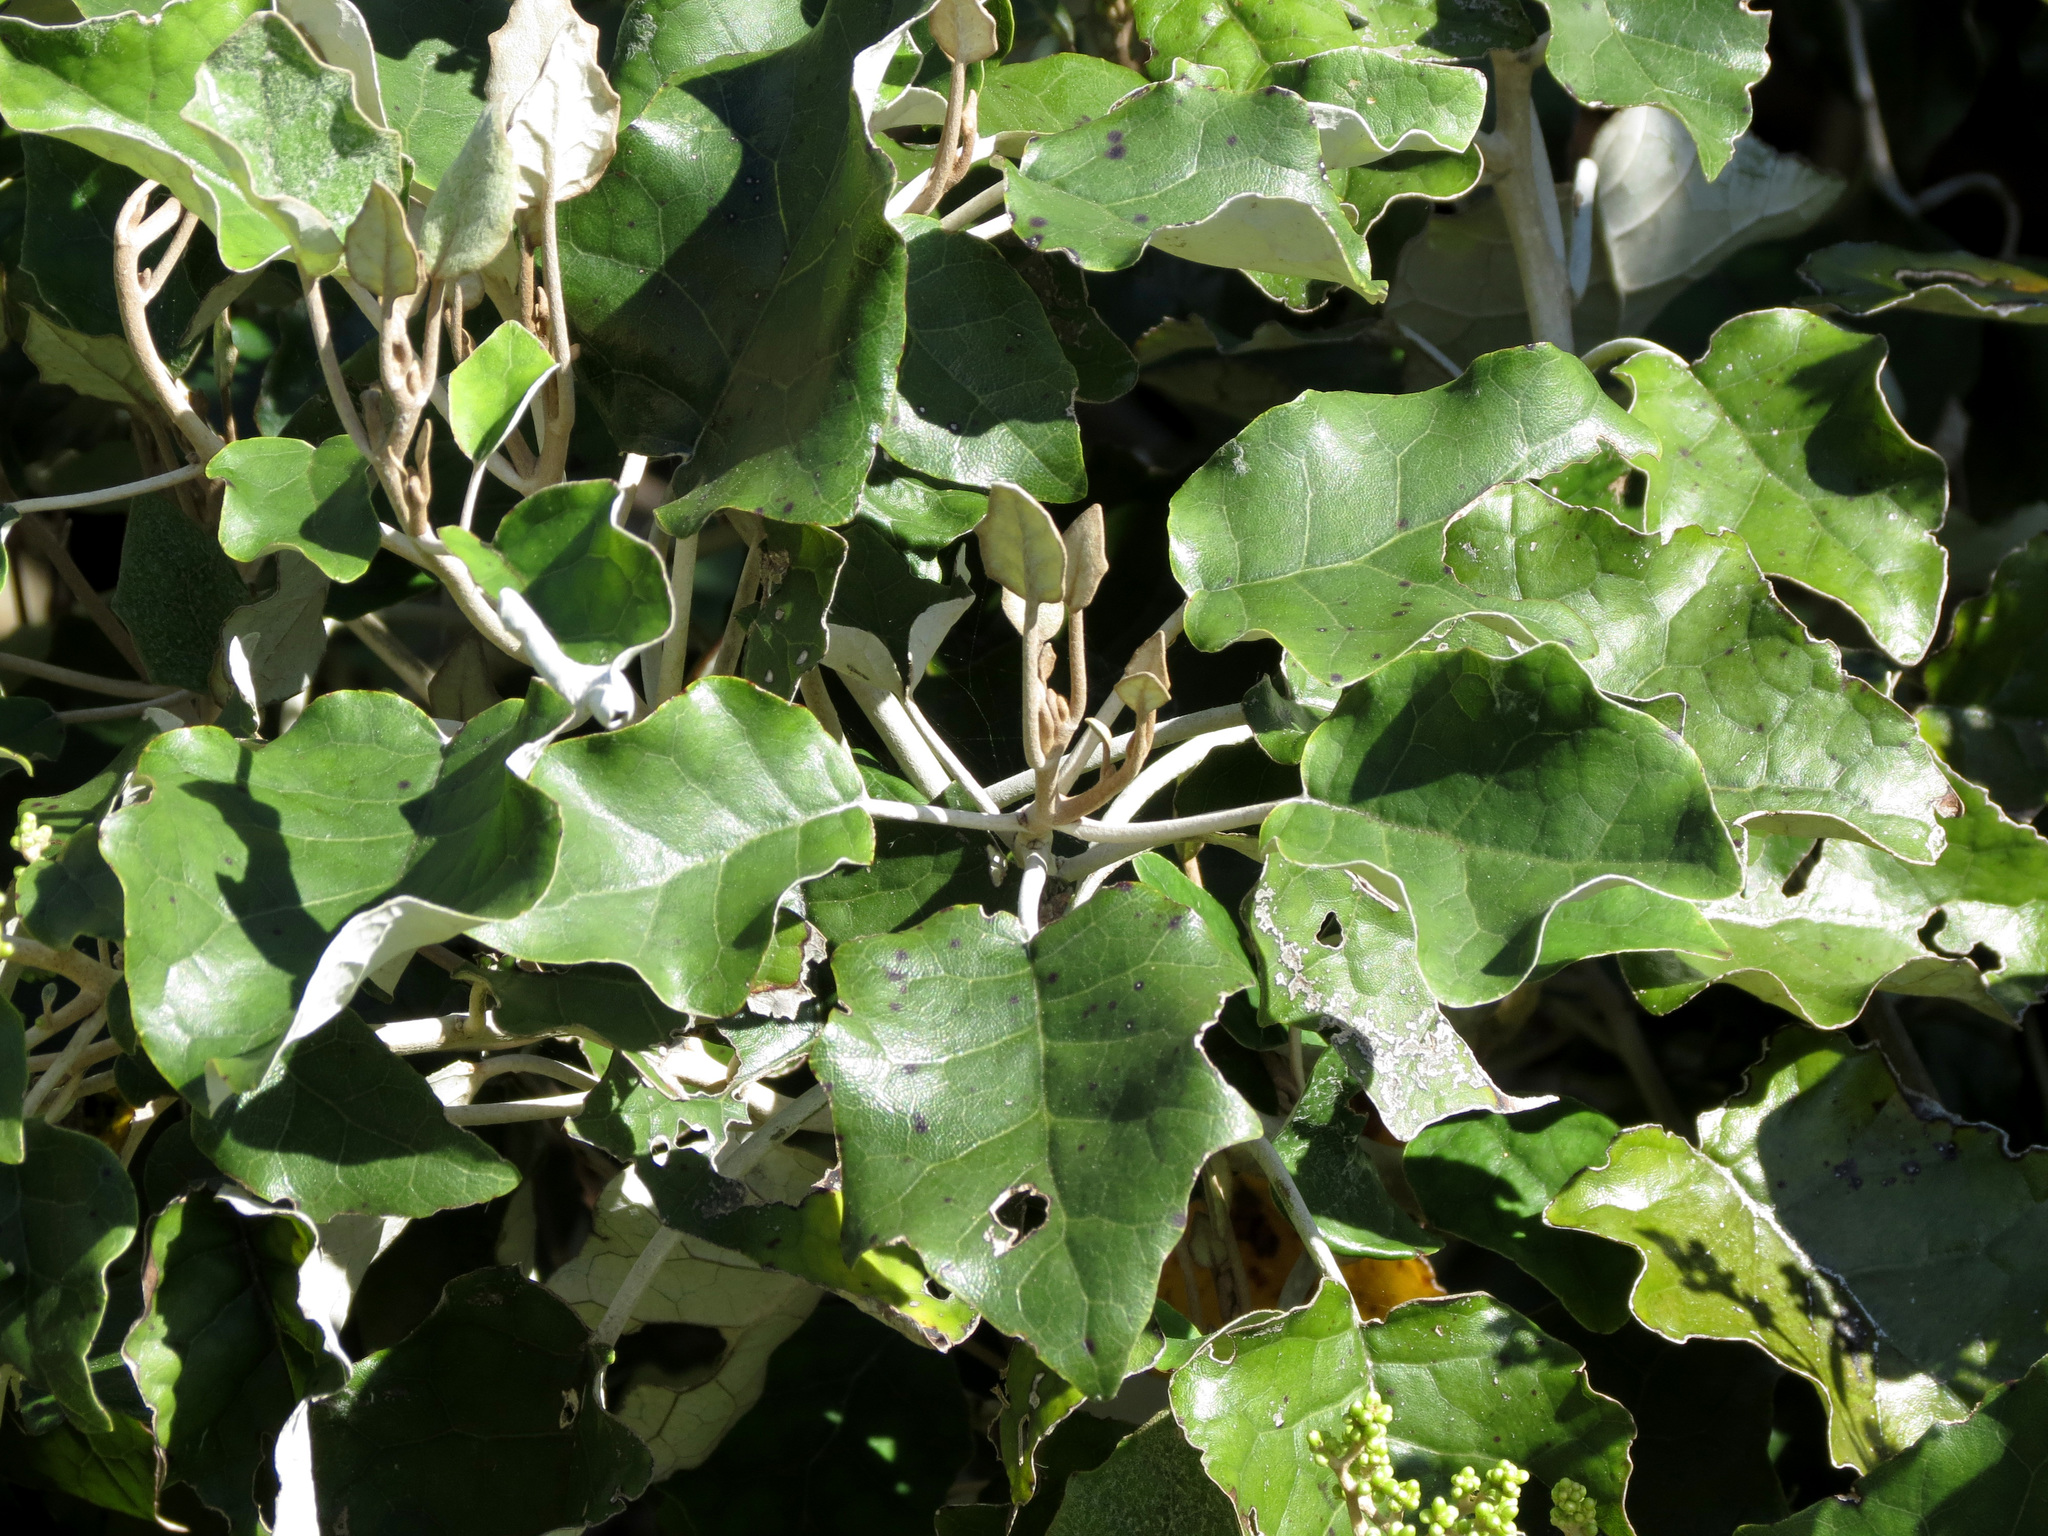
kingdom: Plantae
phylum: Tracheophyta
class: Magnoliopsida
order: Asterales
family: Asteraceae
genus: Brachyglottis
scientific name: Brachyglottis repanda
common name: Hedge ragwort
